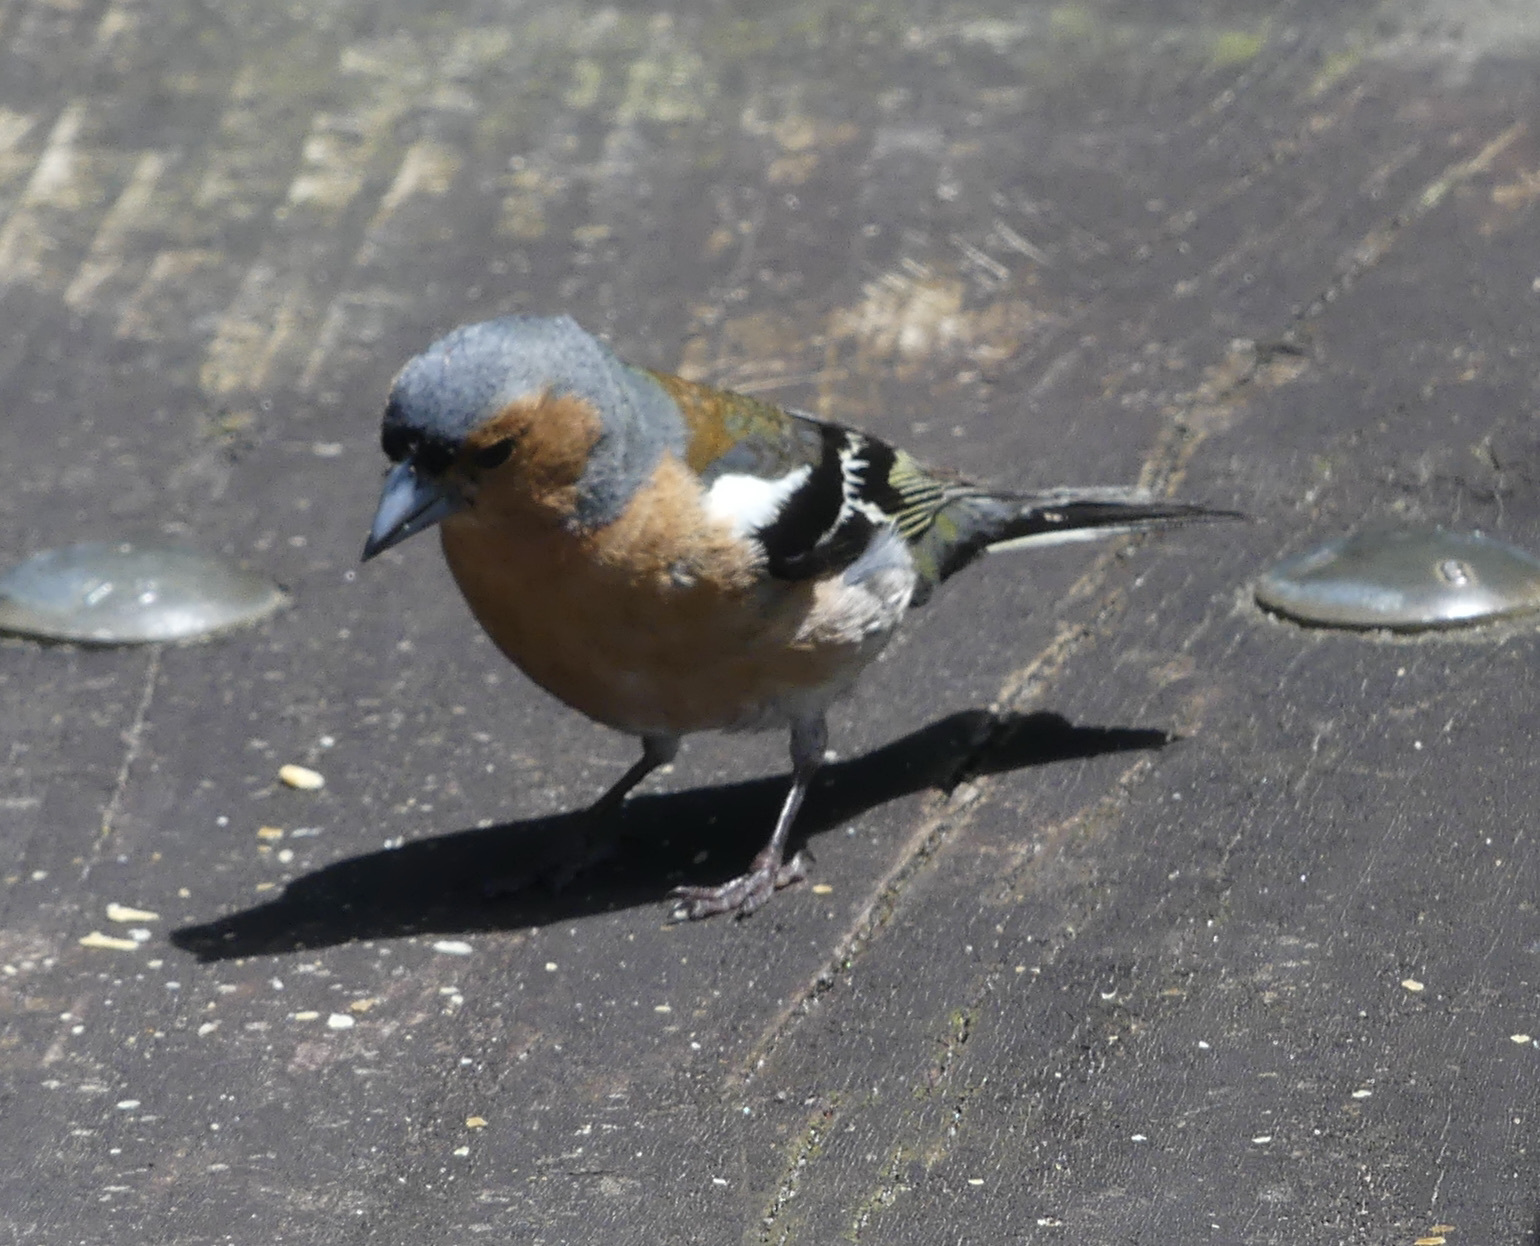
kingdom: Animalia
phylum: Chordata
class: Aves
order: Passeriformes
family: Fringillidae
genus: Fringilla
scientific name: Fringilla coelebs
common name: Common chaffinch
